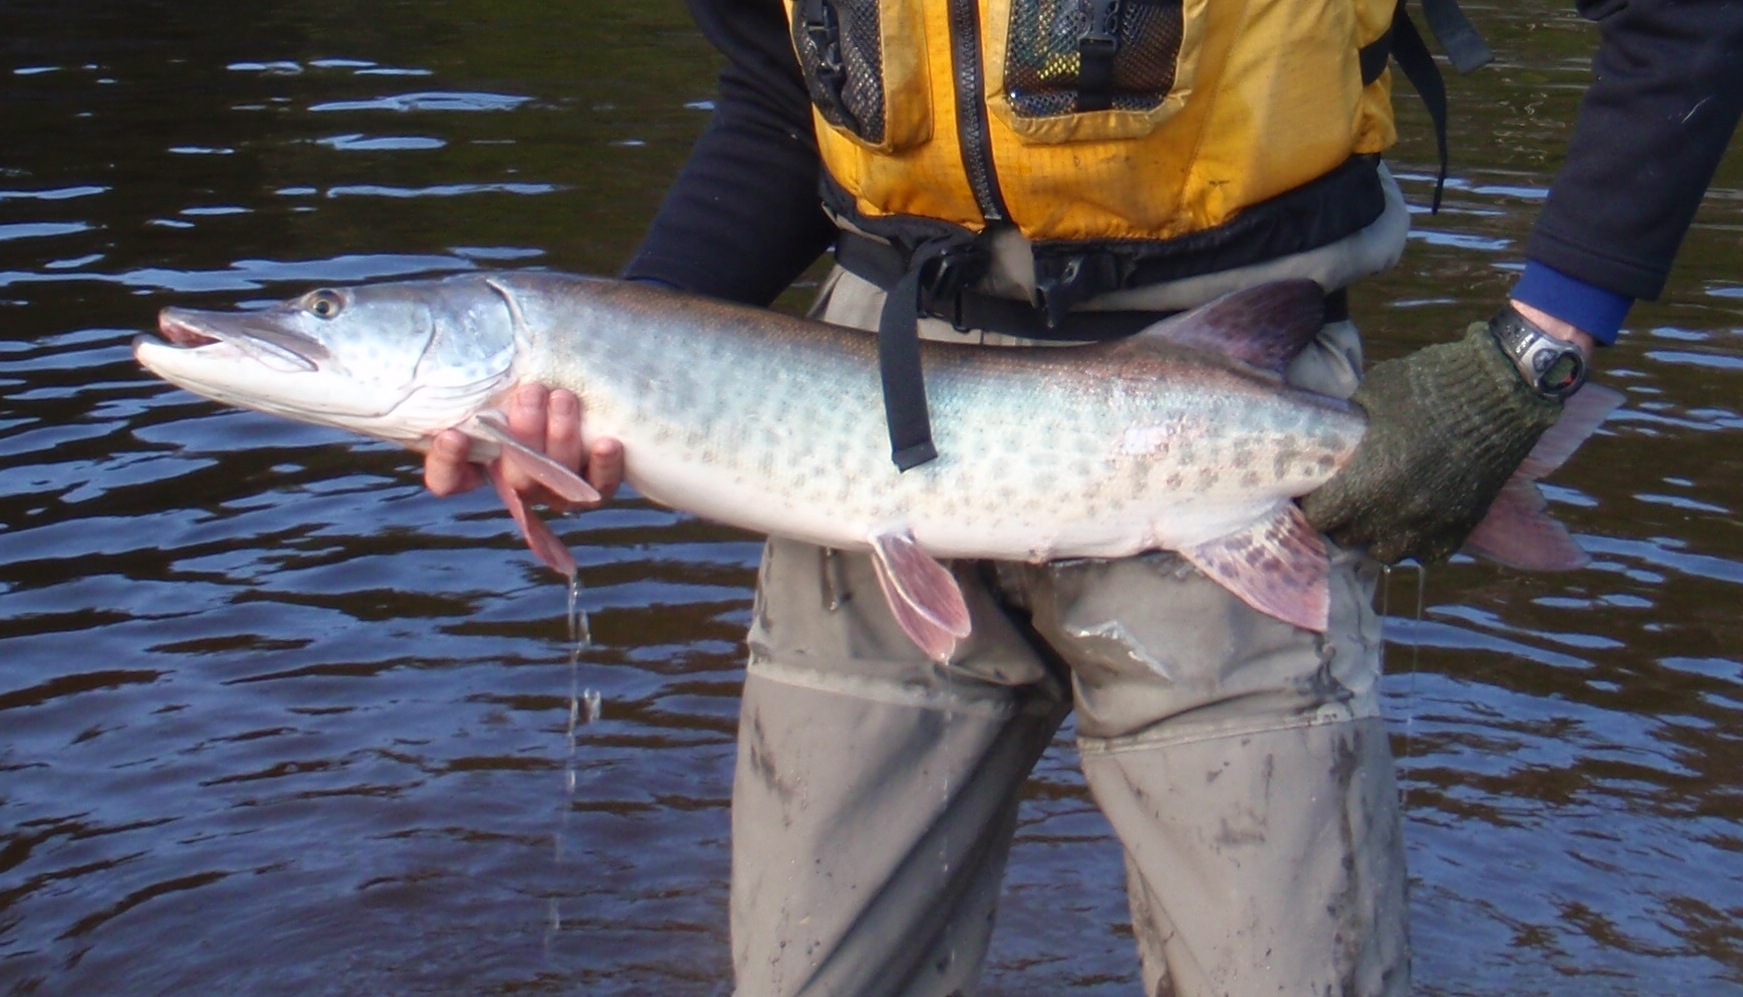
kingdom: Animalia
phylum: Chordata
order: Esociformes
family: Esocidae
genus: Esox
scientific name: Esox masquinongy
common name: Muskellunge
